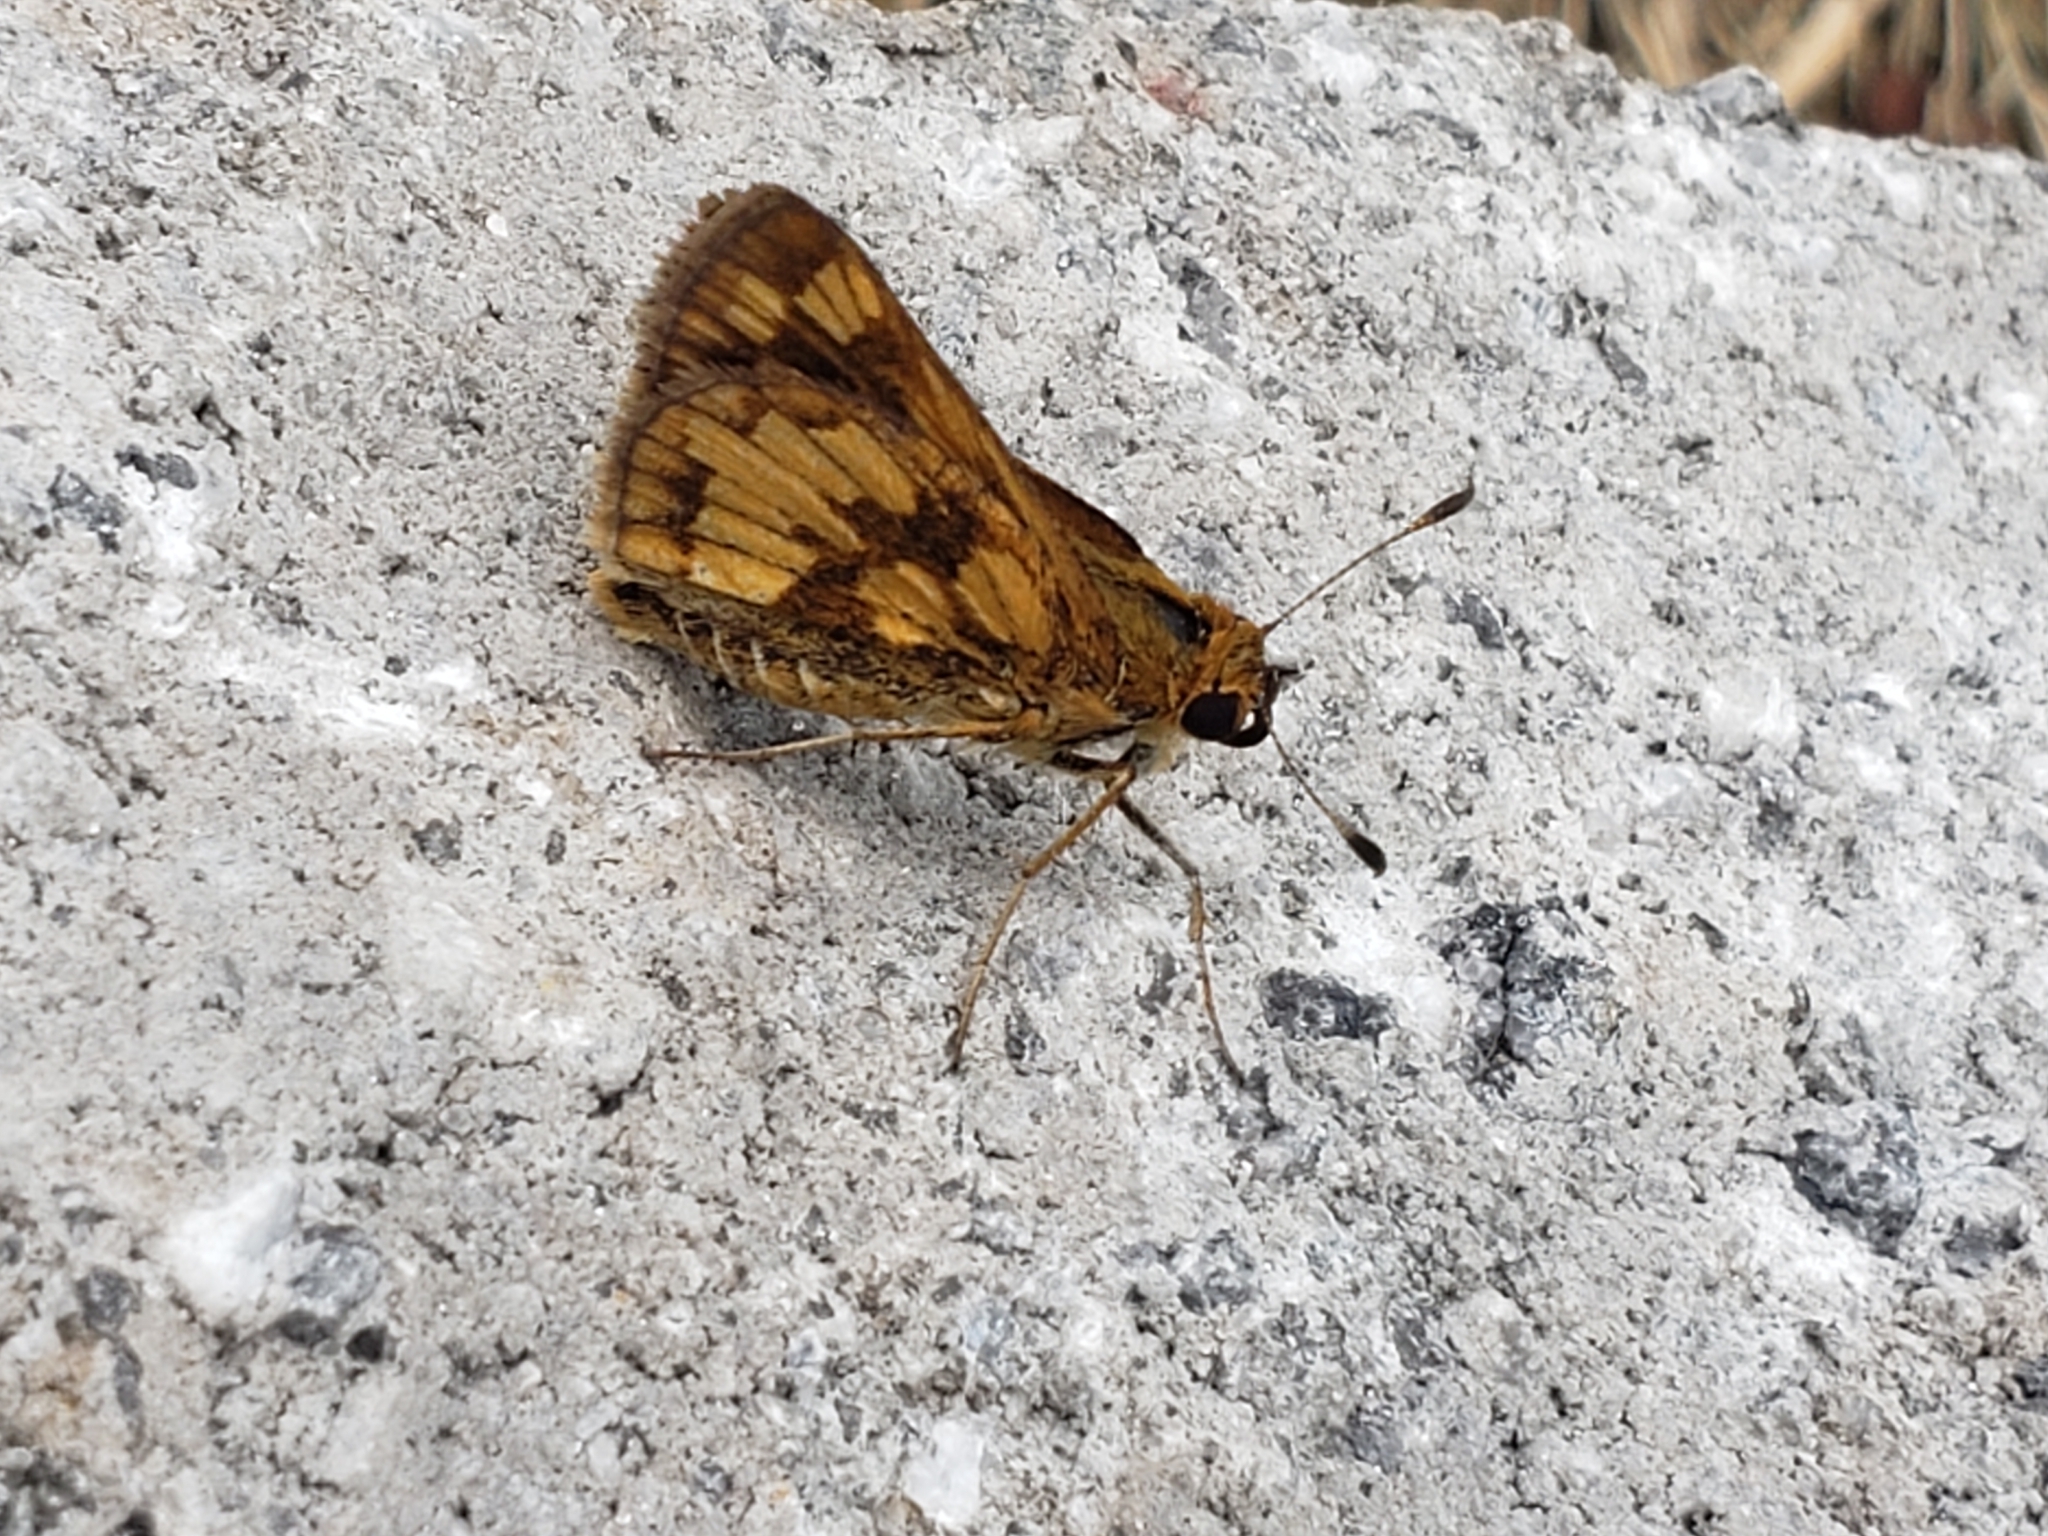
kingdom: Animalia
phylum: Arthropoda
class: Insecta
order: Lepidoptera
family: Hesperiidae
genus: Polites
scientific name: Polites coras
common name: Peck's skipper
